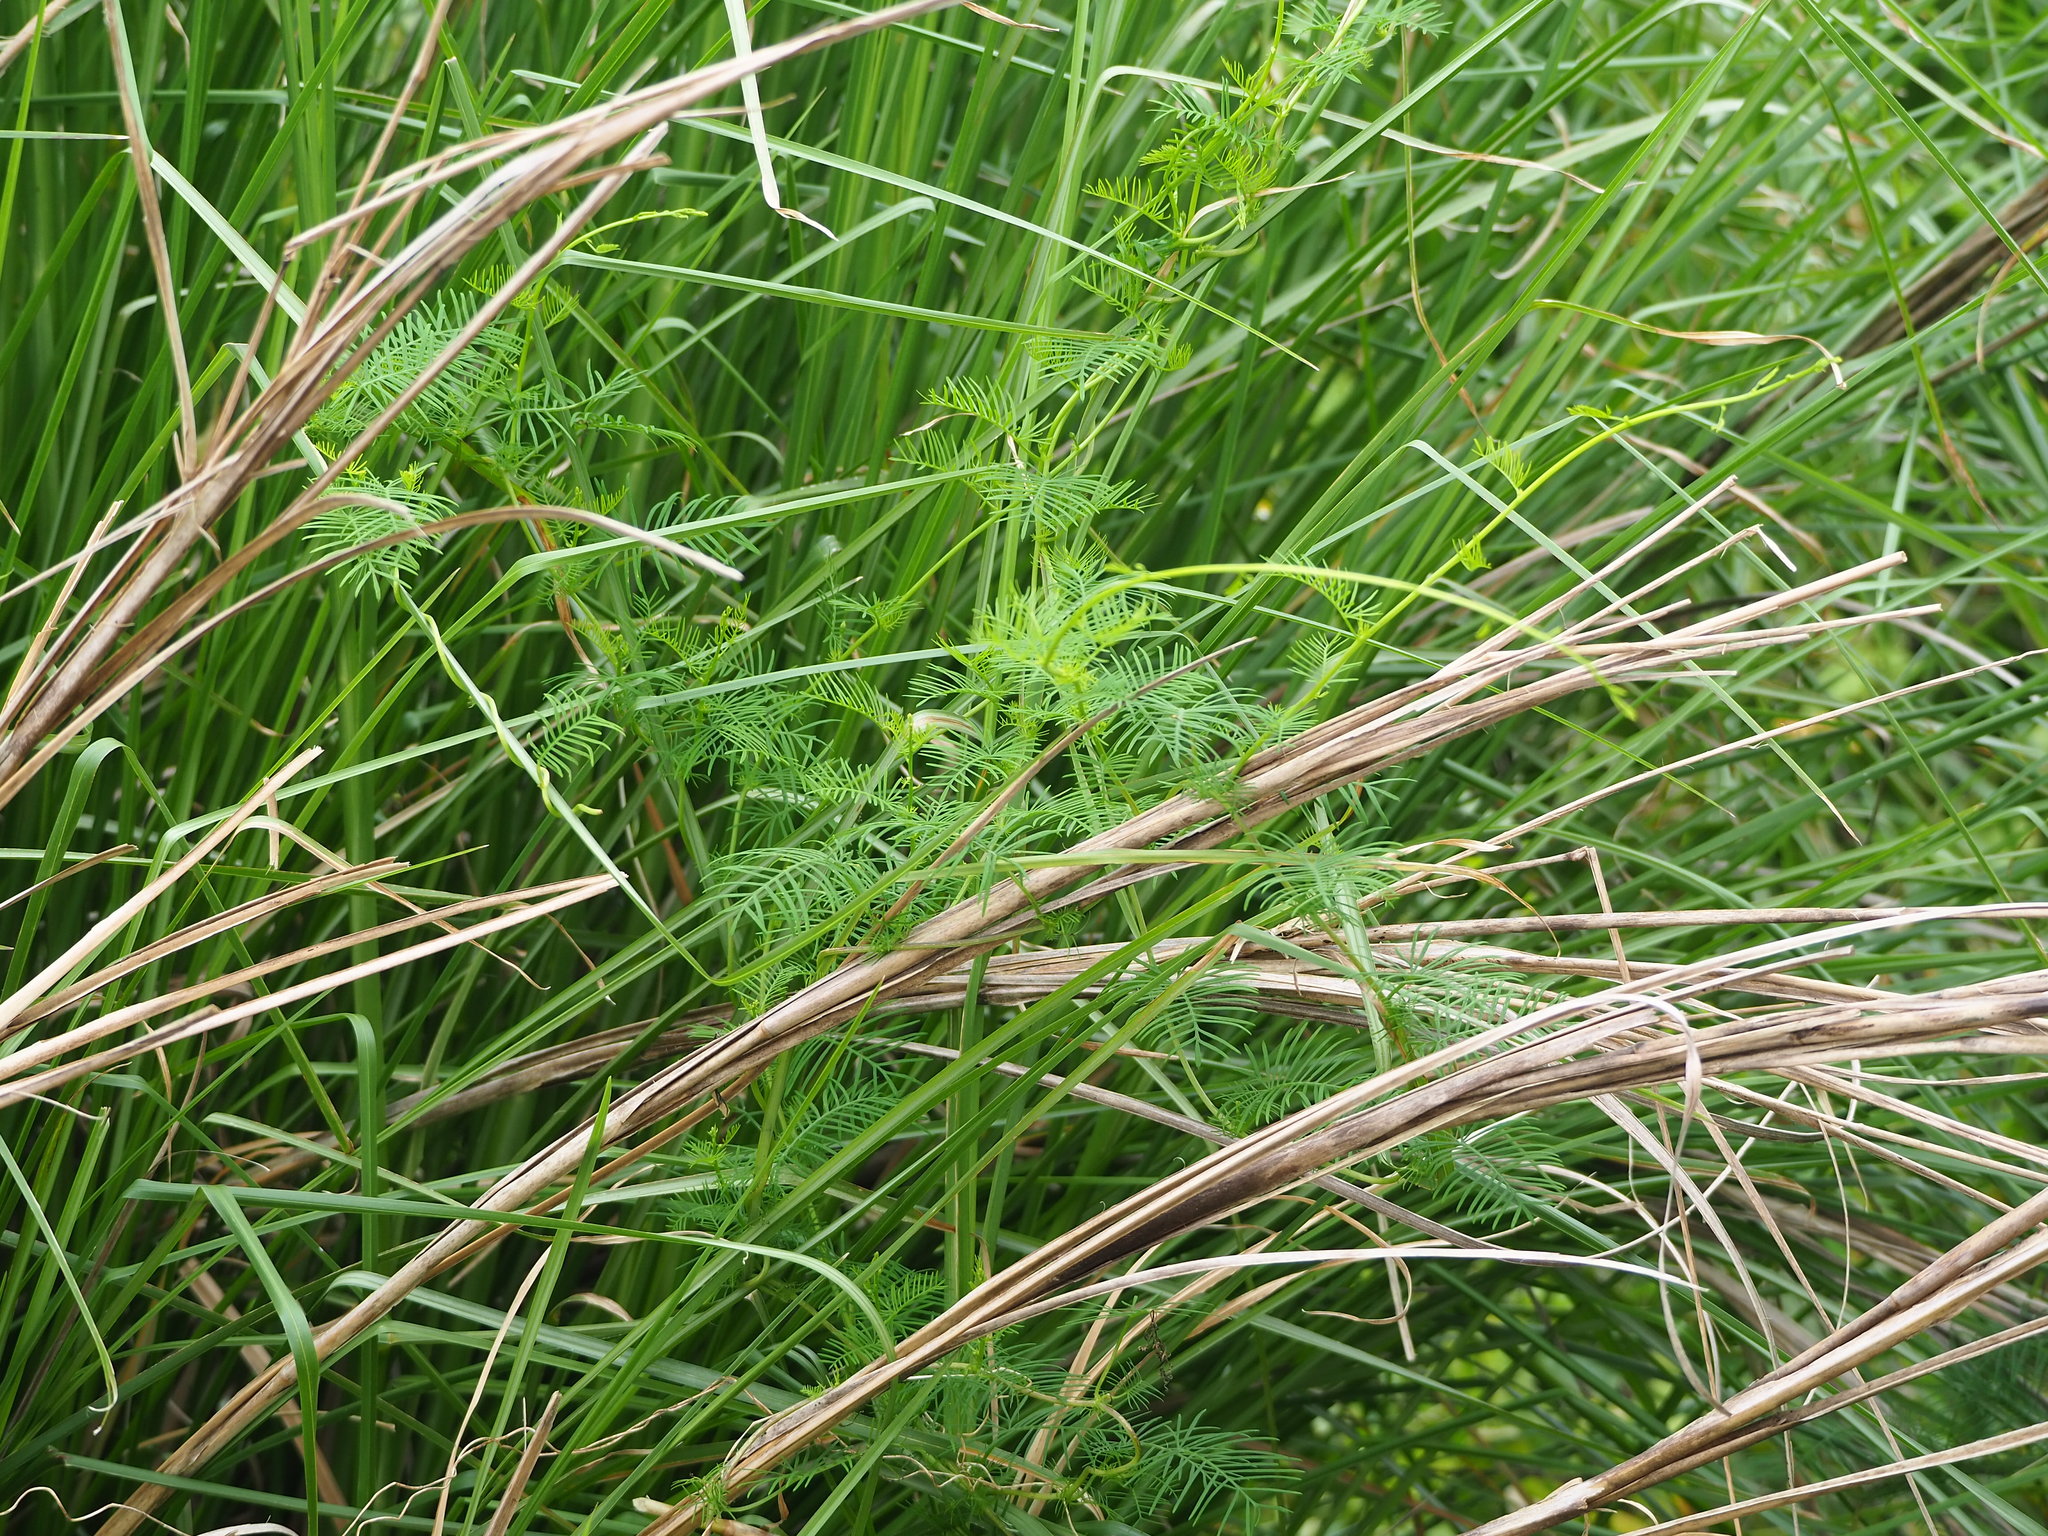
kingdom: Plantae
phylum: Tracheophyta
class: Magnoliopsida
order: Solanales
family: Convolvulaceae
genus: Ipomoea
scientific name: Ipomoea quamoclit
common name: Cypress vine
